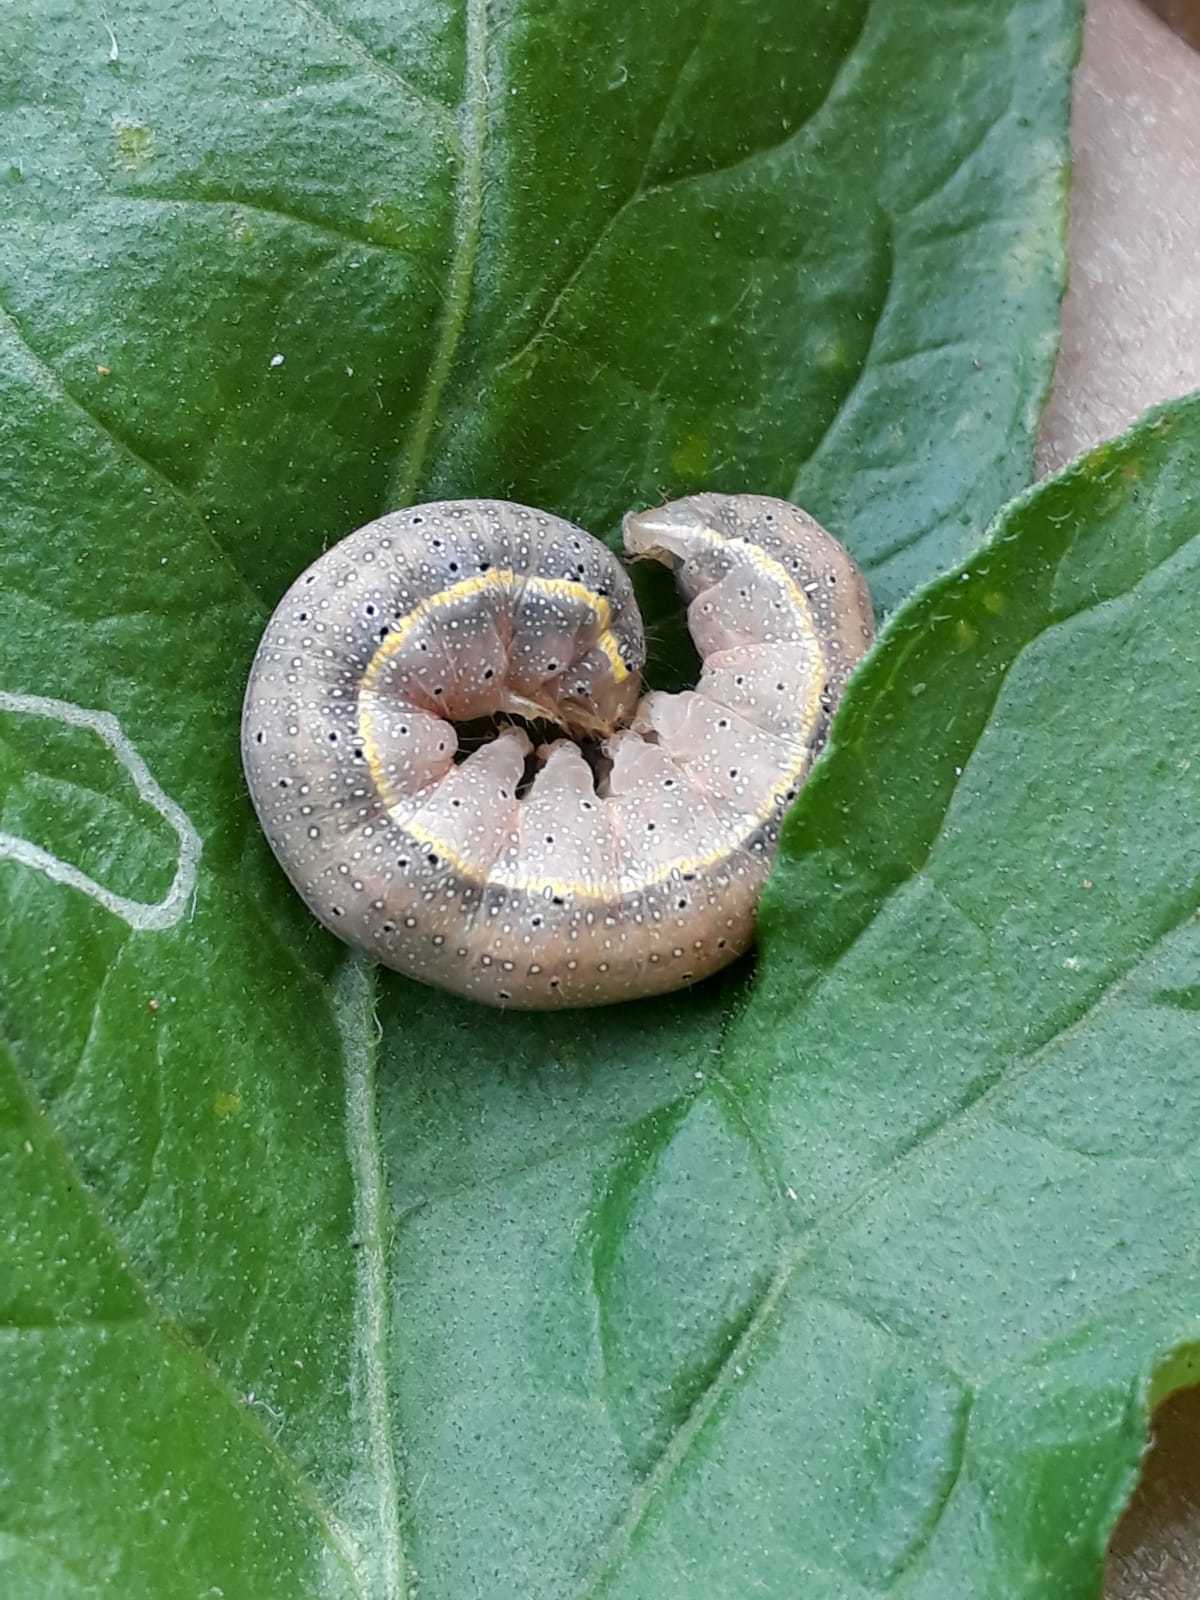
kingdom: Animalia
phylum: Arthropoda
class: Insecta
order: Lepidoptera
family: Noctuidae
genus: Lacanobia
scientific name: Lacanobia oleracea
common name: Bright-line brown-eye
